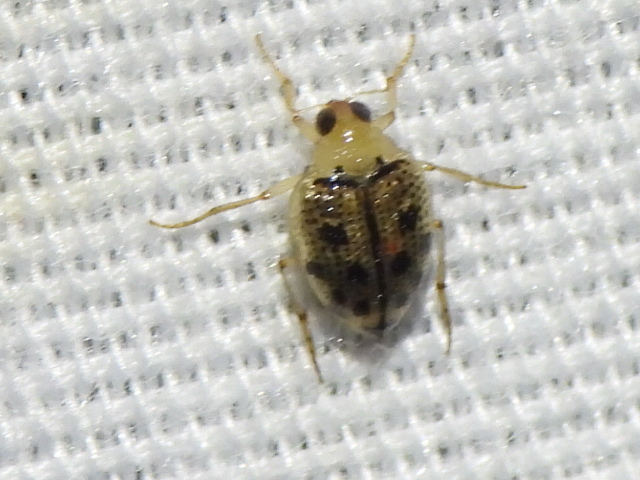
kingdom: Animalia
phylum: Arthropoda
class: Insecta
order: Coleoptera
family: Haliplidae
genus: Peltodytes
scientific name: Peltodytes litoralis
